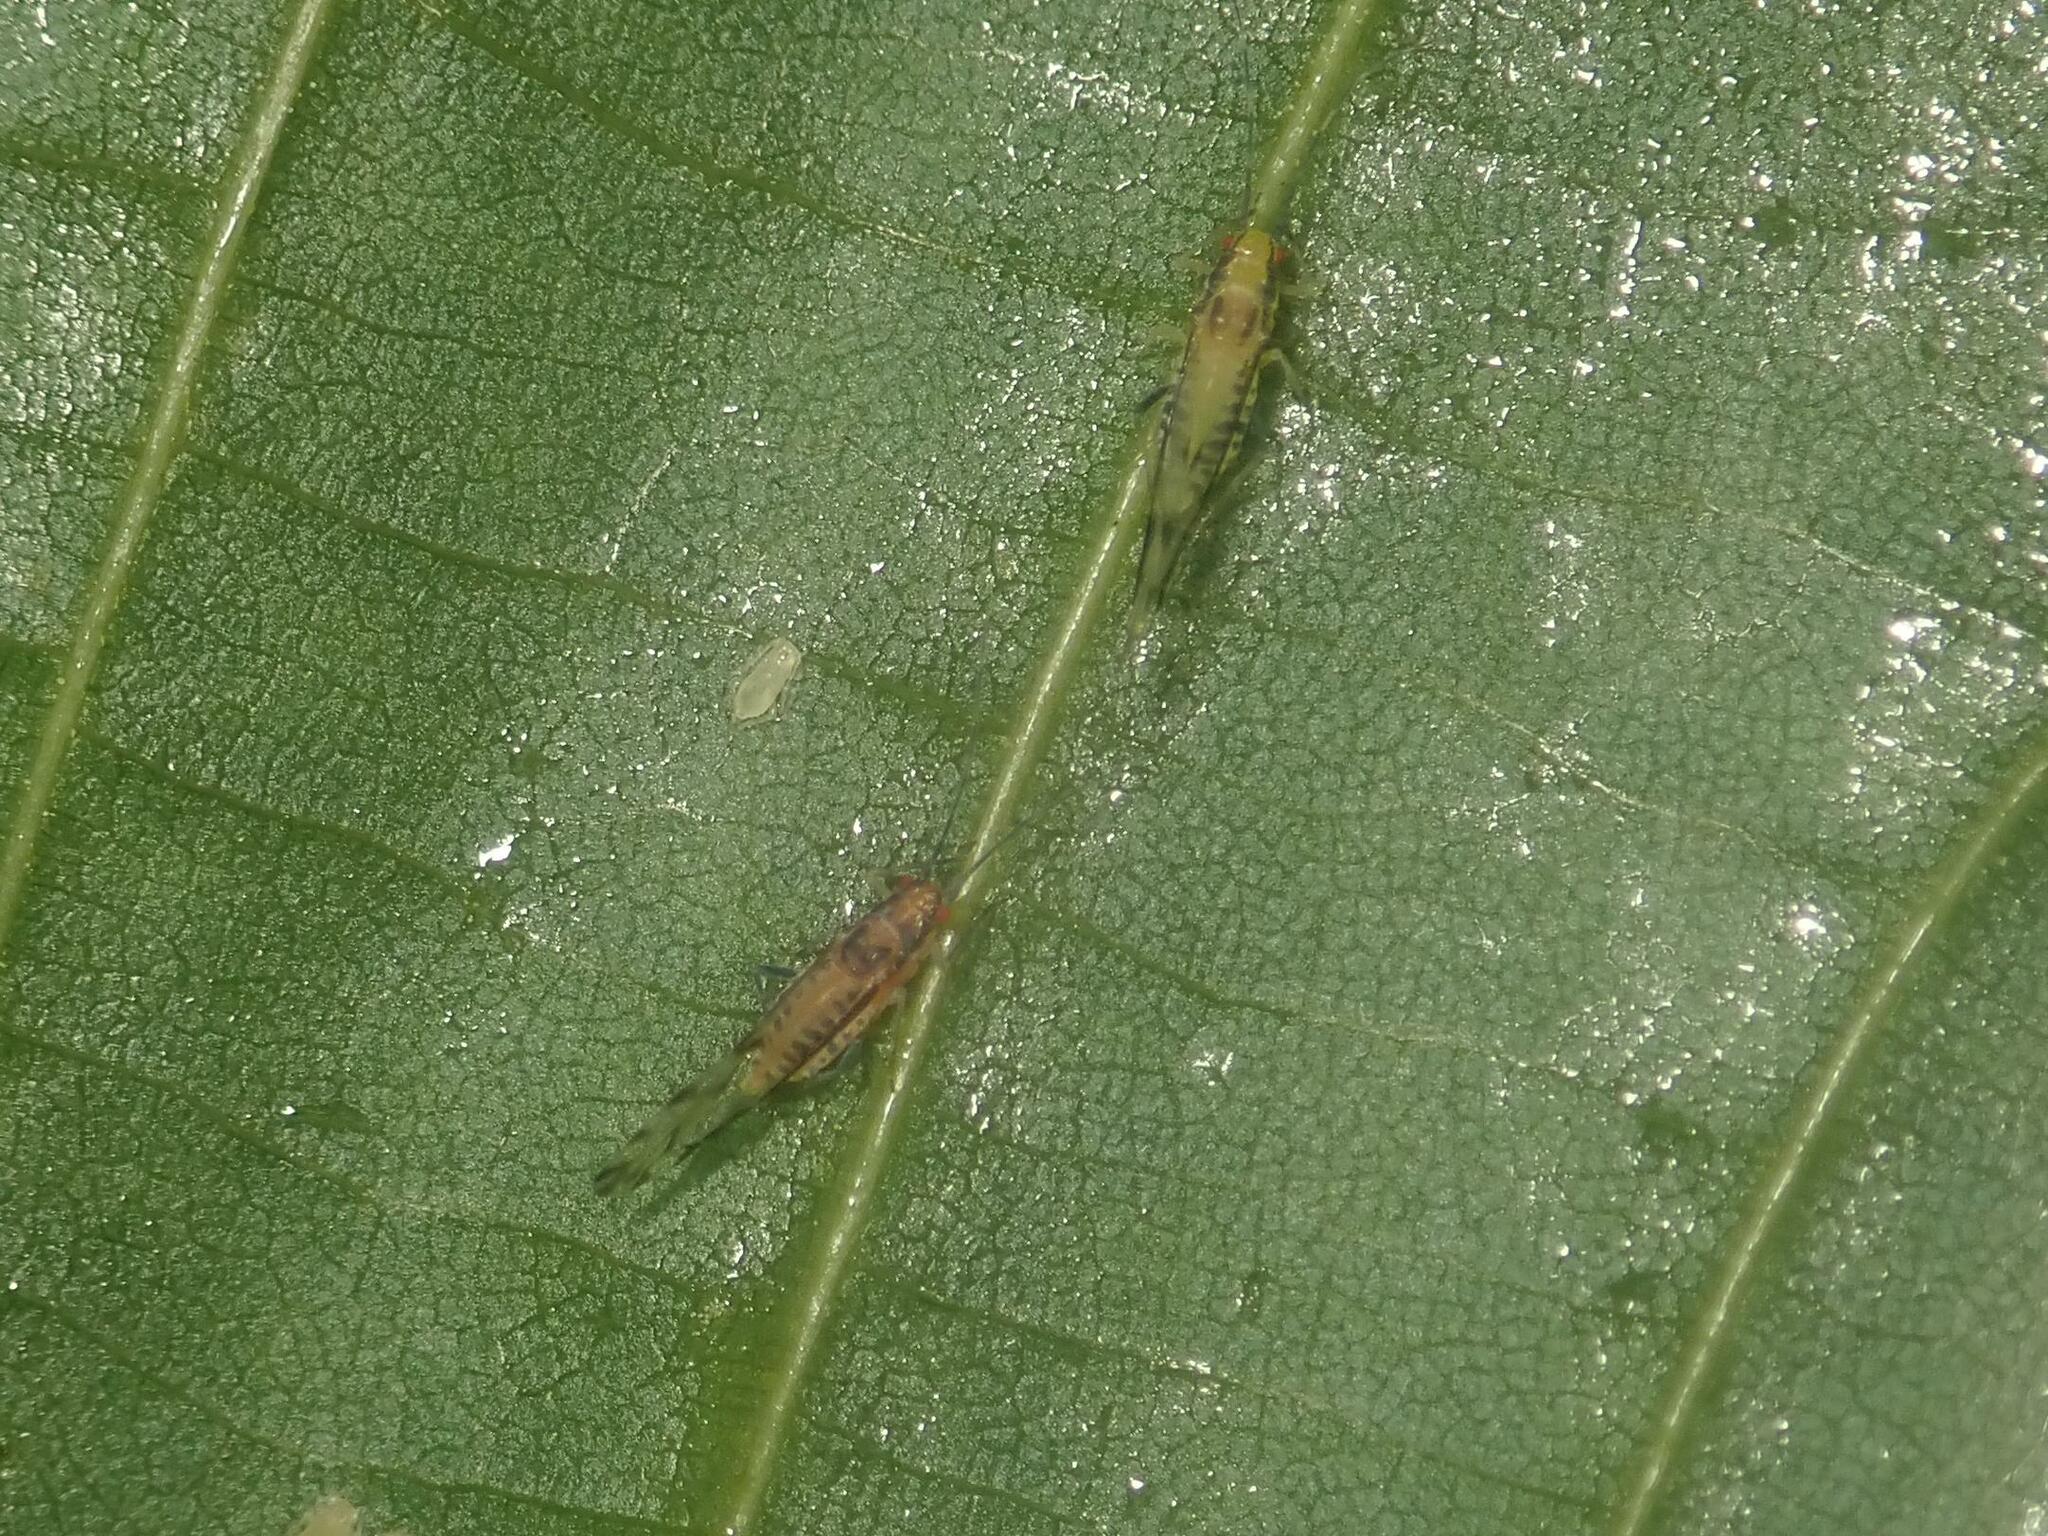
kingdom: Animalia
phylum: Arthropoda
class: Insecta
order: Hemiptera
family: Aphididae
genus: Eucallipterus
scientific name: Eucallipterus tiliae
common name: Aphid
